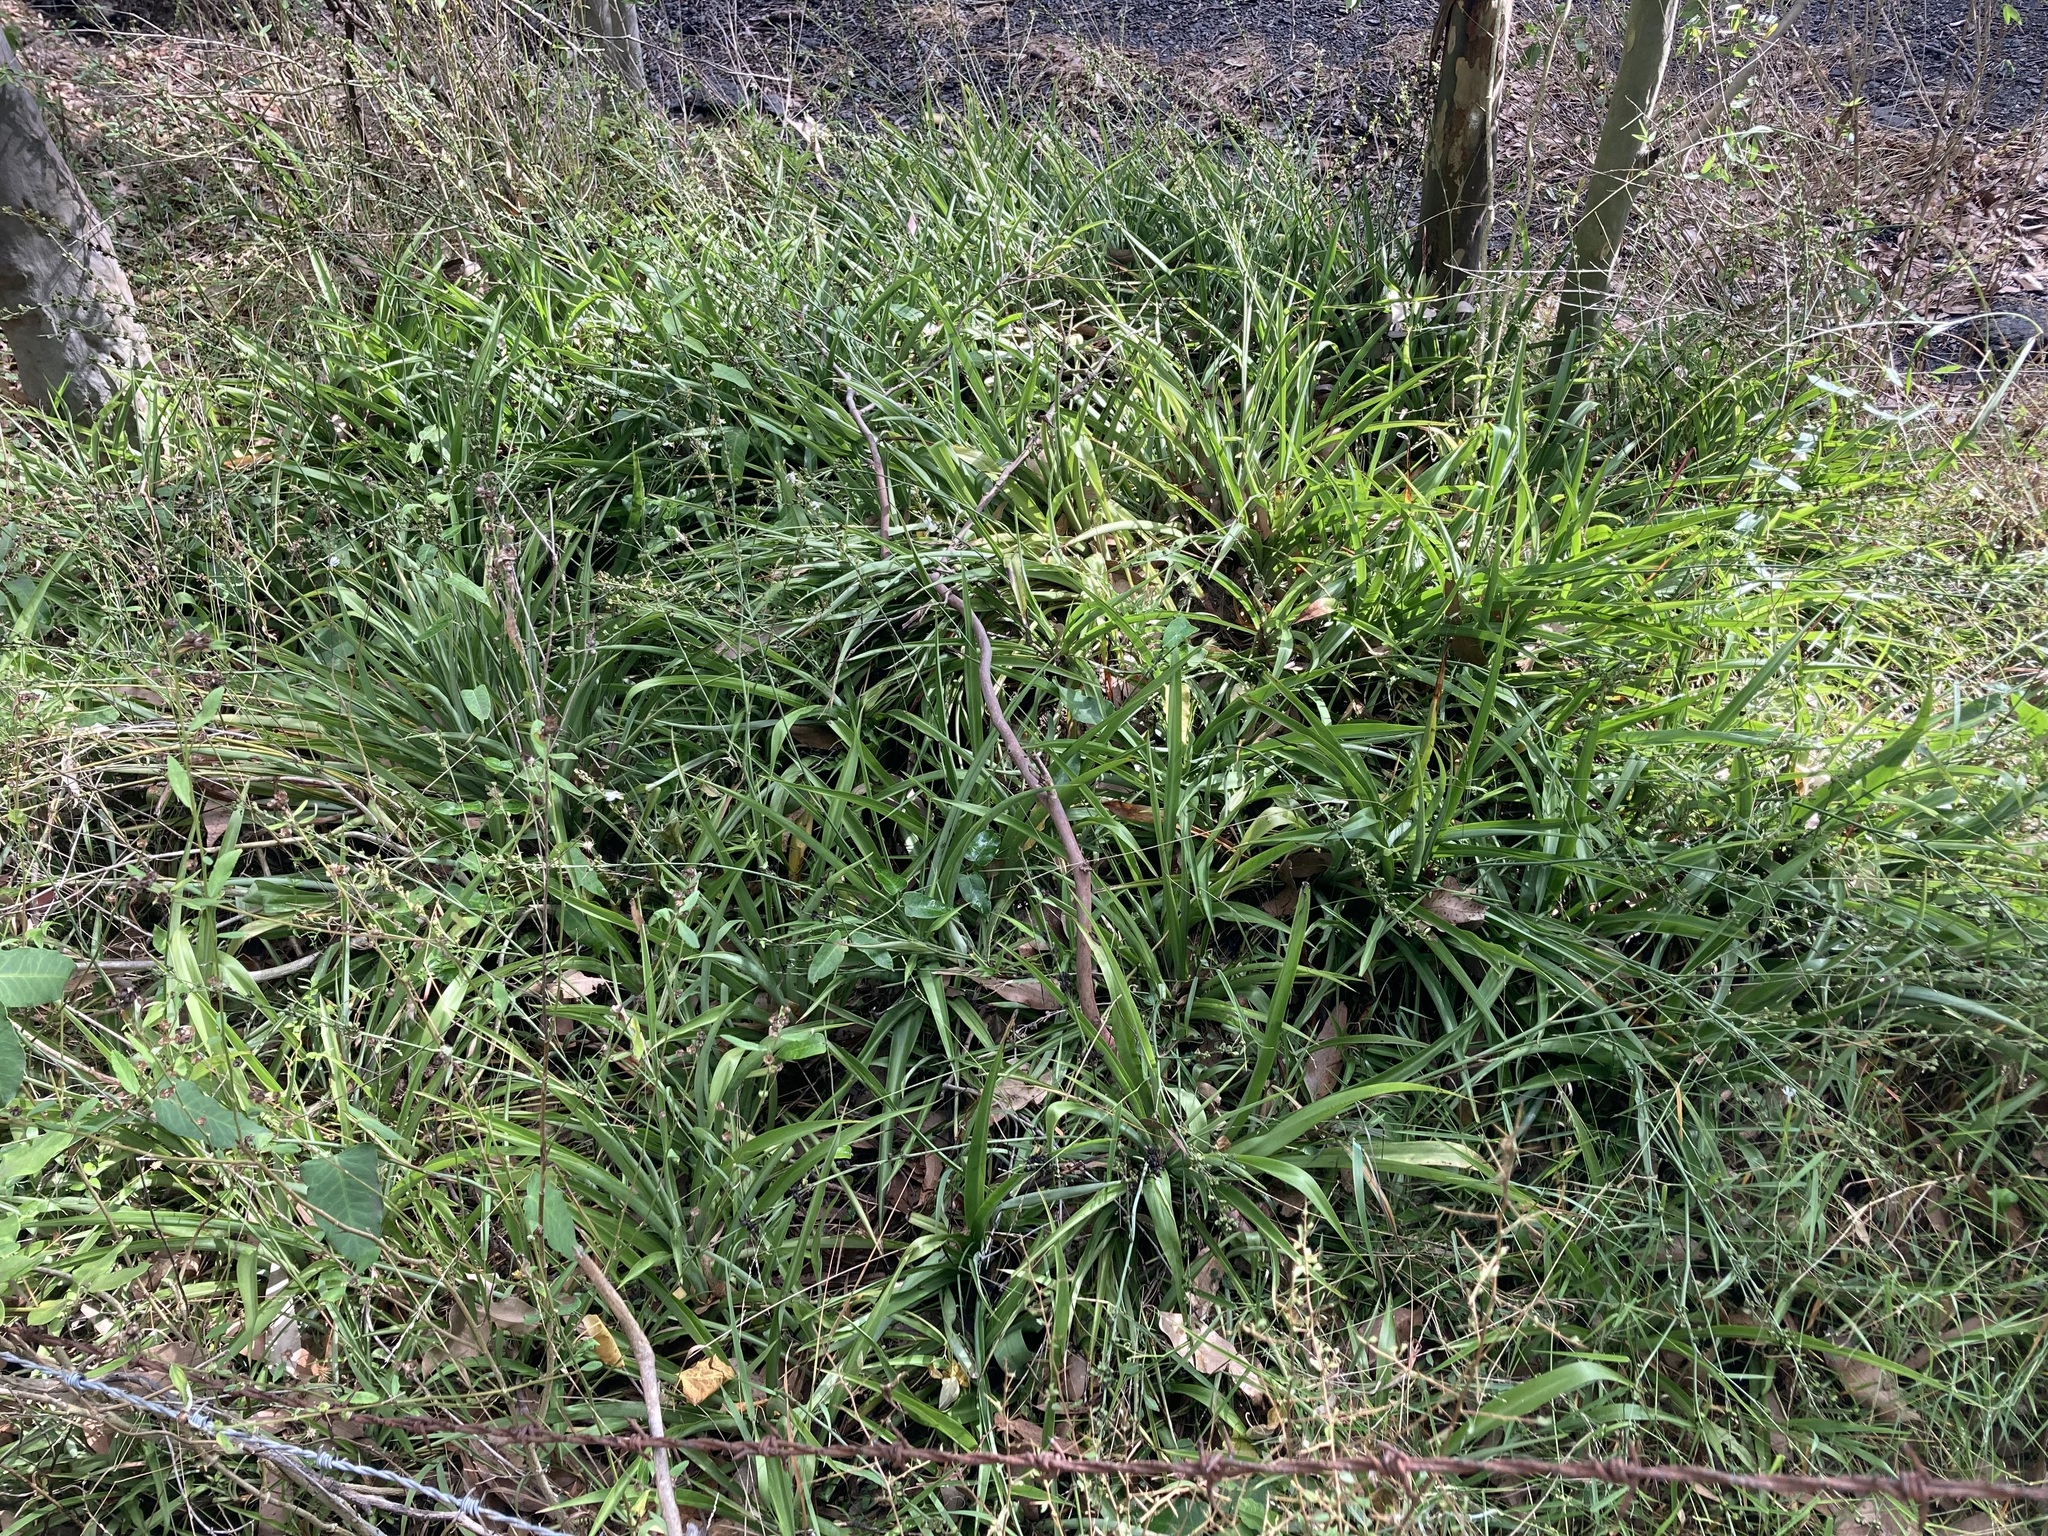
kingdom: Plantae
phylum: Tracheophyta
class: Liliopsida
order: Asparagales
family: Asparagaceae
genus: Chlorophytum
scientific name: Chlorophytum comosum
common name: Spider plant
